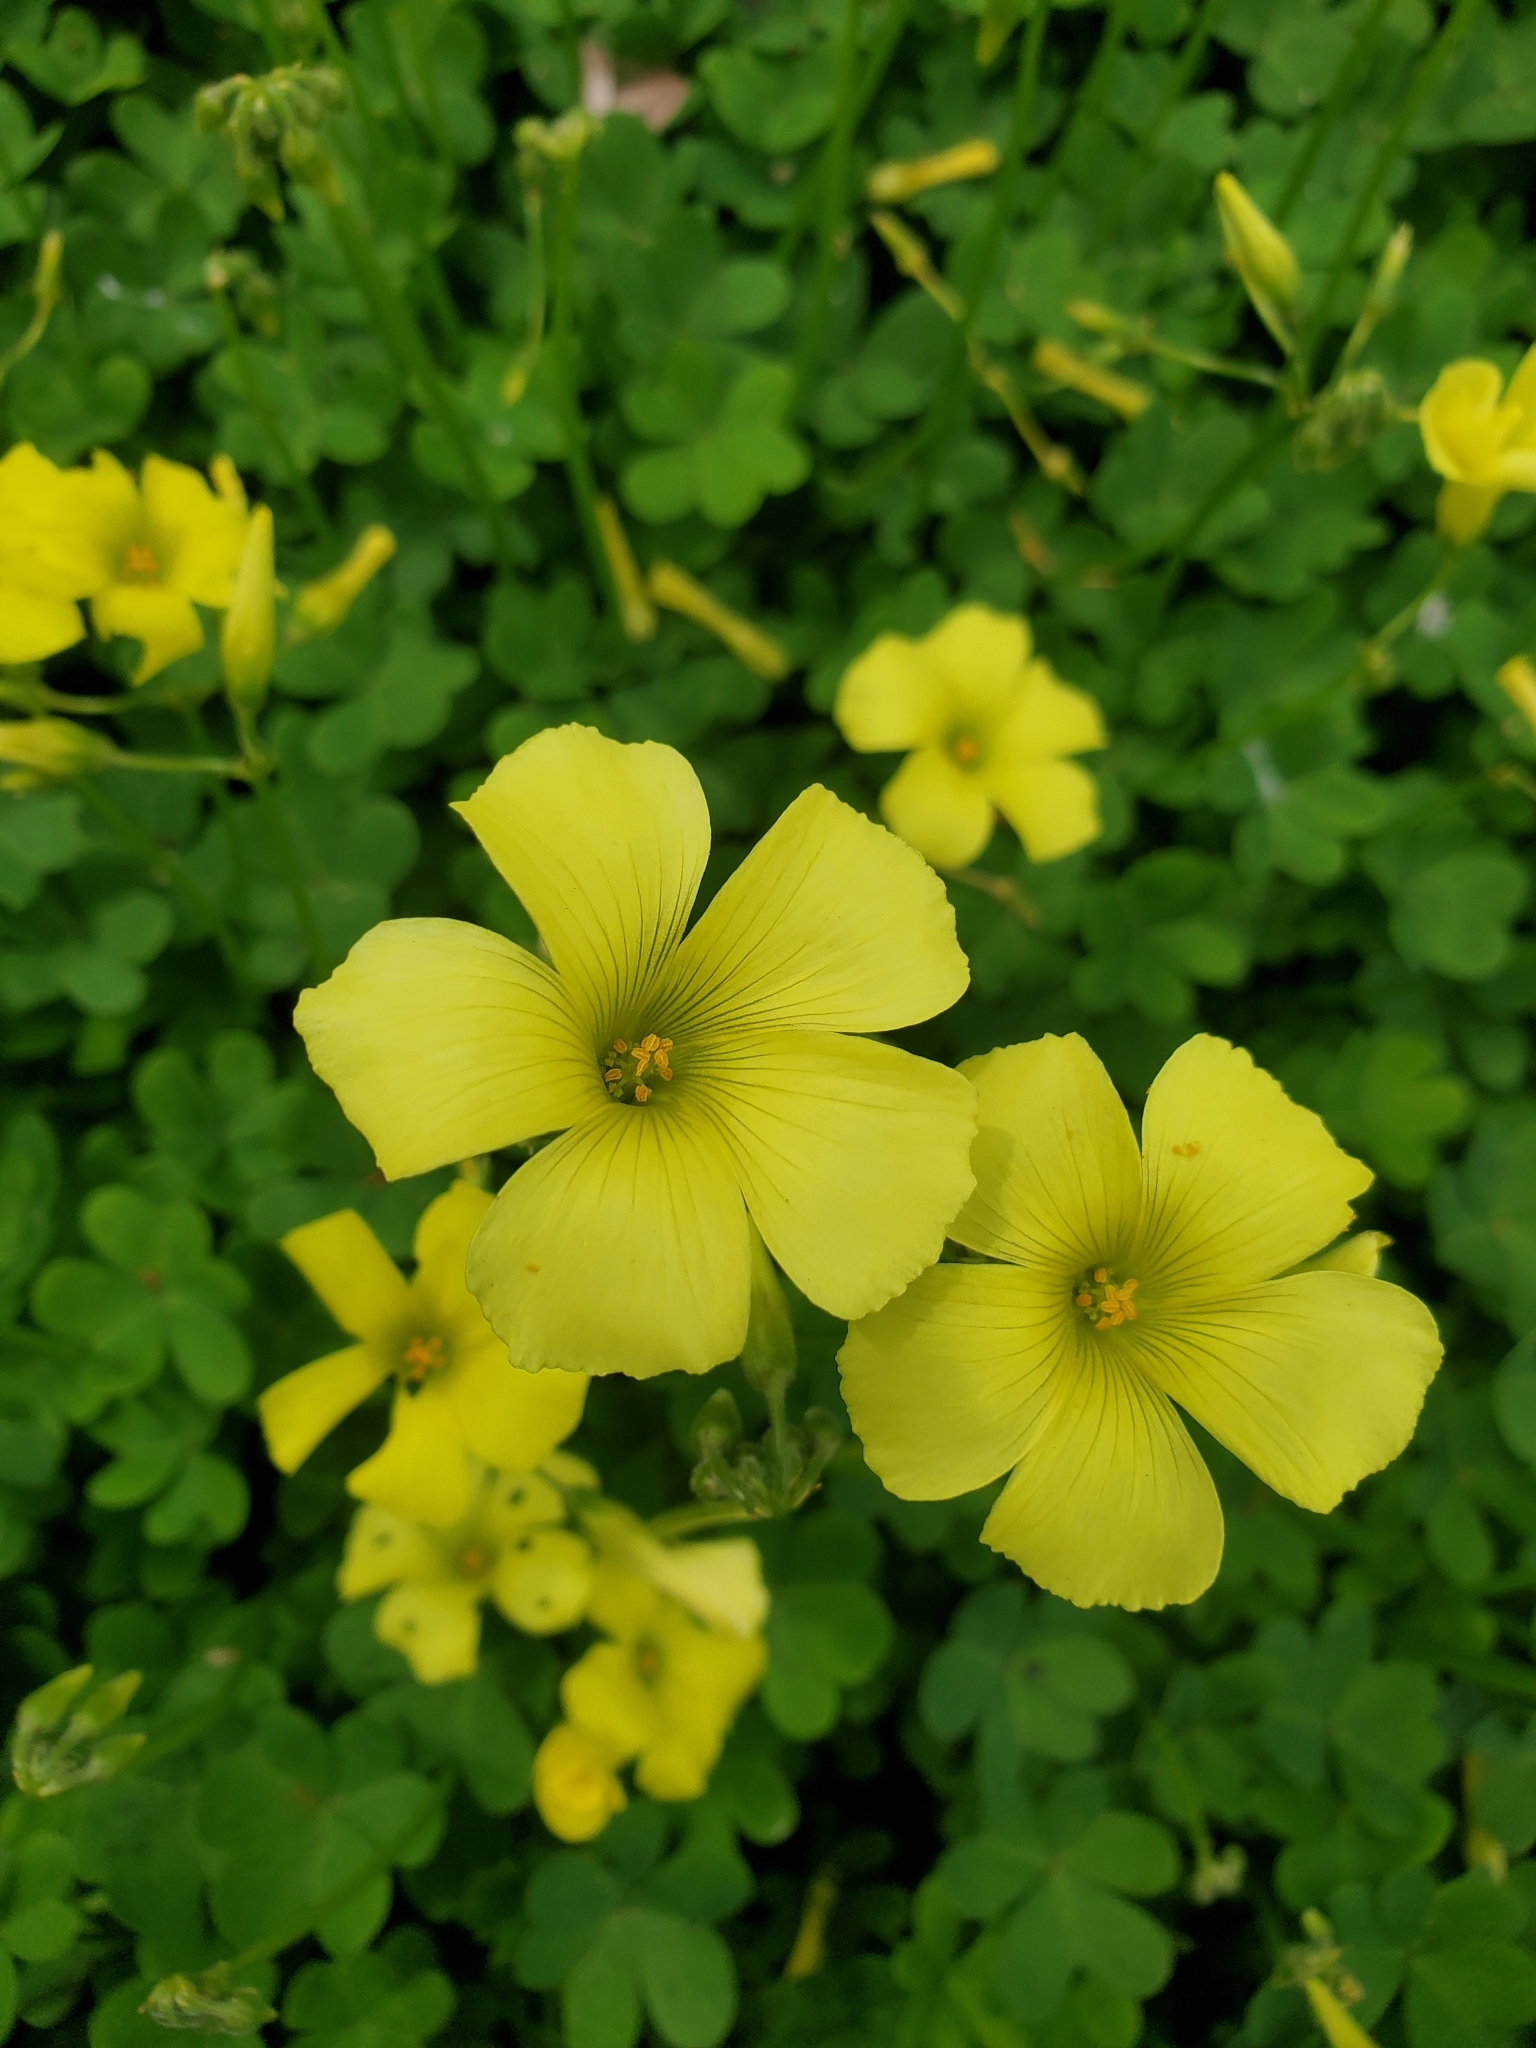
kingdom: Plantae
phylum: Tracheophyta
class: Magnoliopsida
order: Oxalidales
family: Oxalidaceae
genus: Oxalis
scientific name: Oxalis pes-caprae
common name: Bermuda-buttercup
